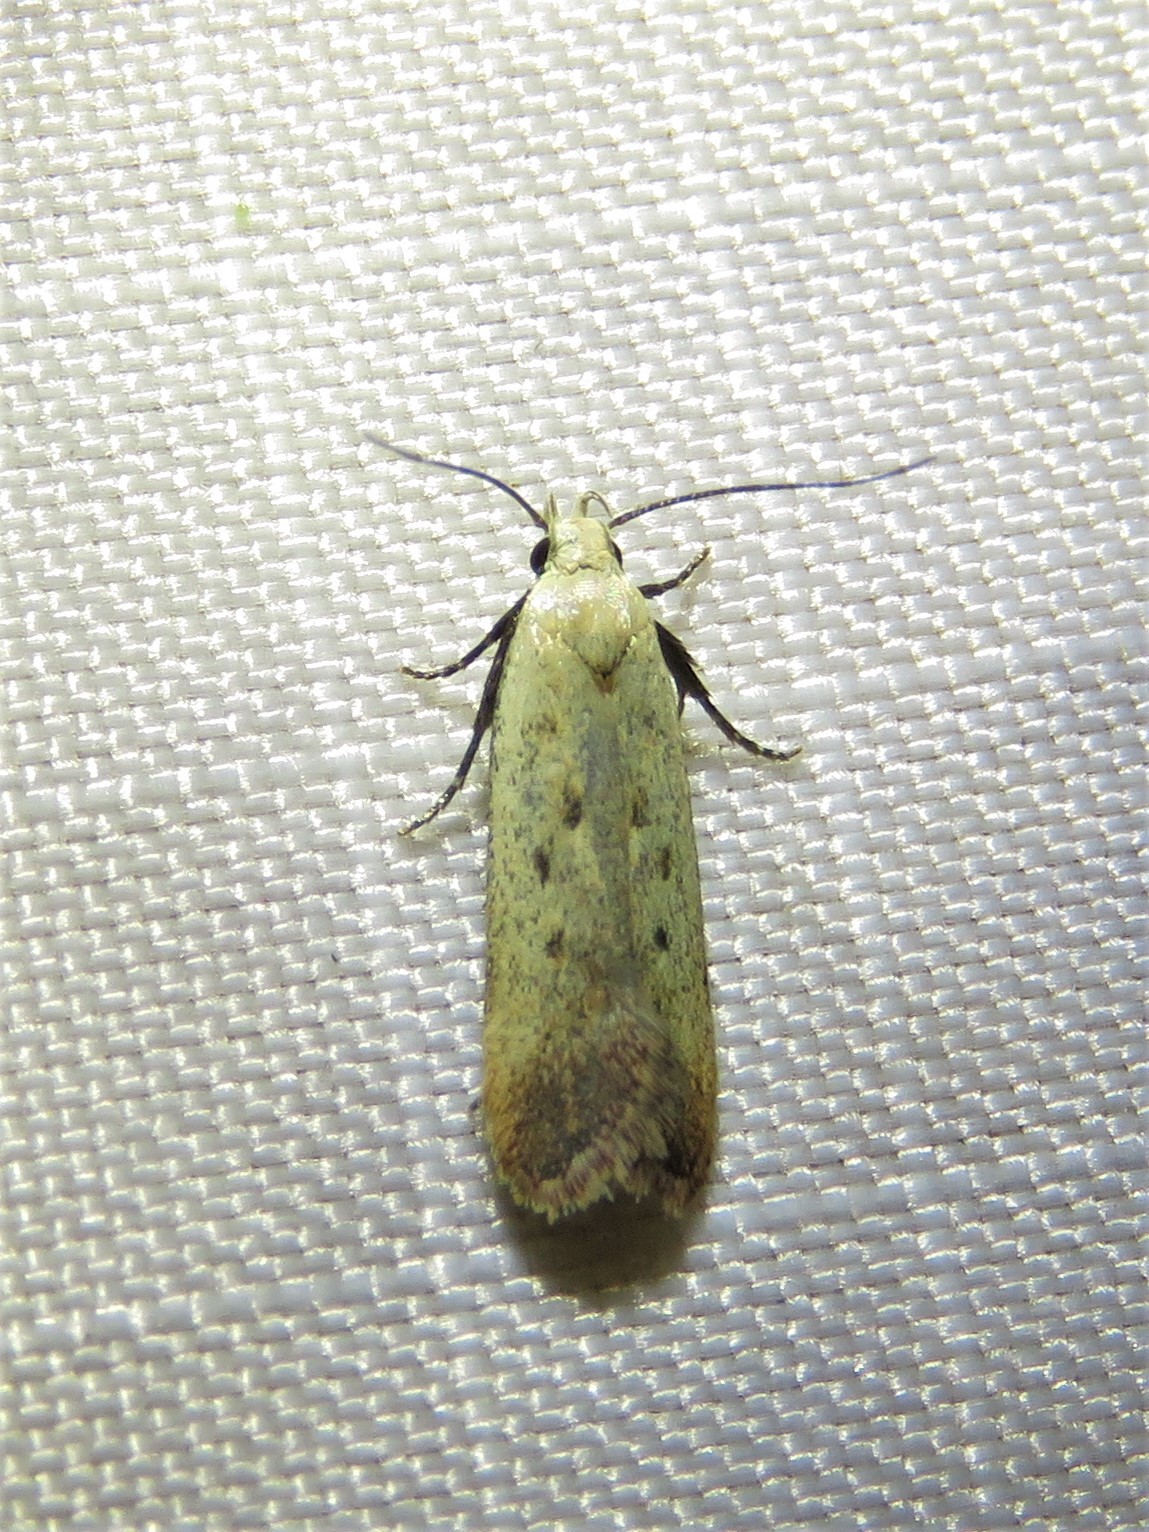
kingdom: Animalia
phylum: Arthropoda
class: Insecta
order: Lepidoptera
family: Gelechiidae
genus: Anacampsis
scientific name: Anacampsis fullonella
